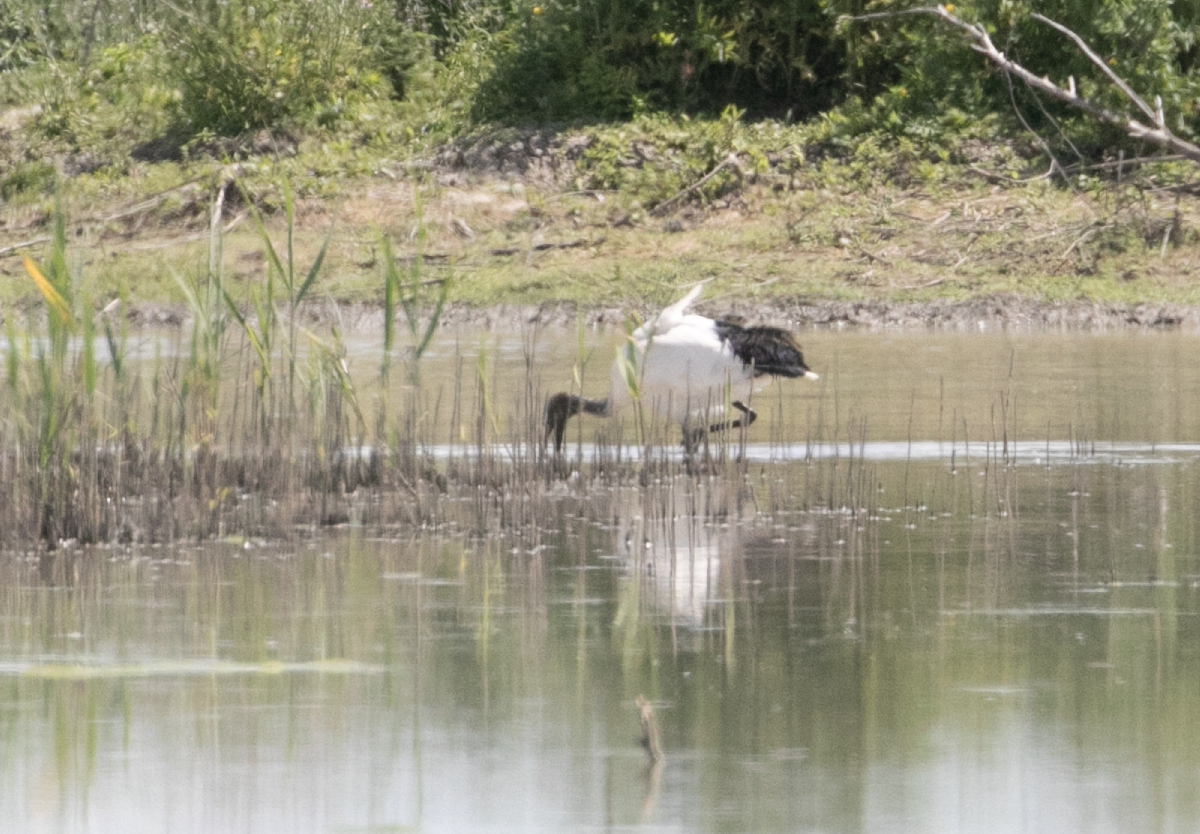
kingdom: Animalia
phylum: Chordata
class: Aves
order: Pelecaniformes
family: Threskiornithidae
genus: Threskiornis
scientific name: Threskiornis aethiopicus
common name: Sacred ibis
